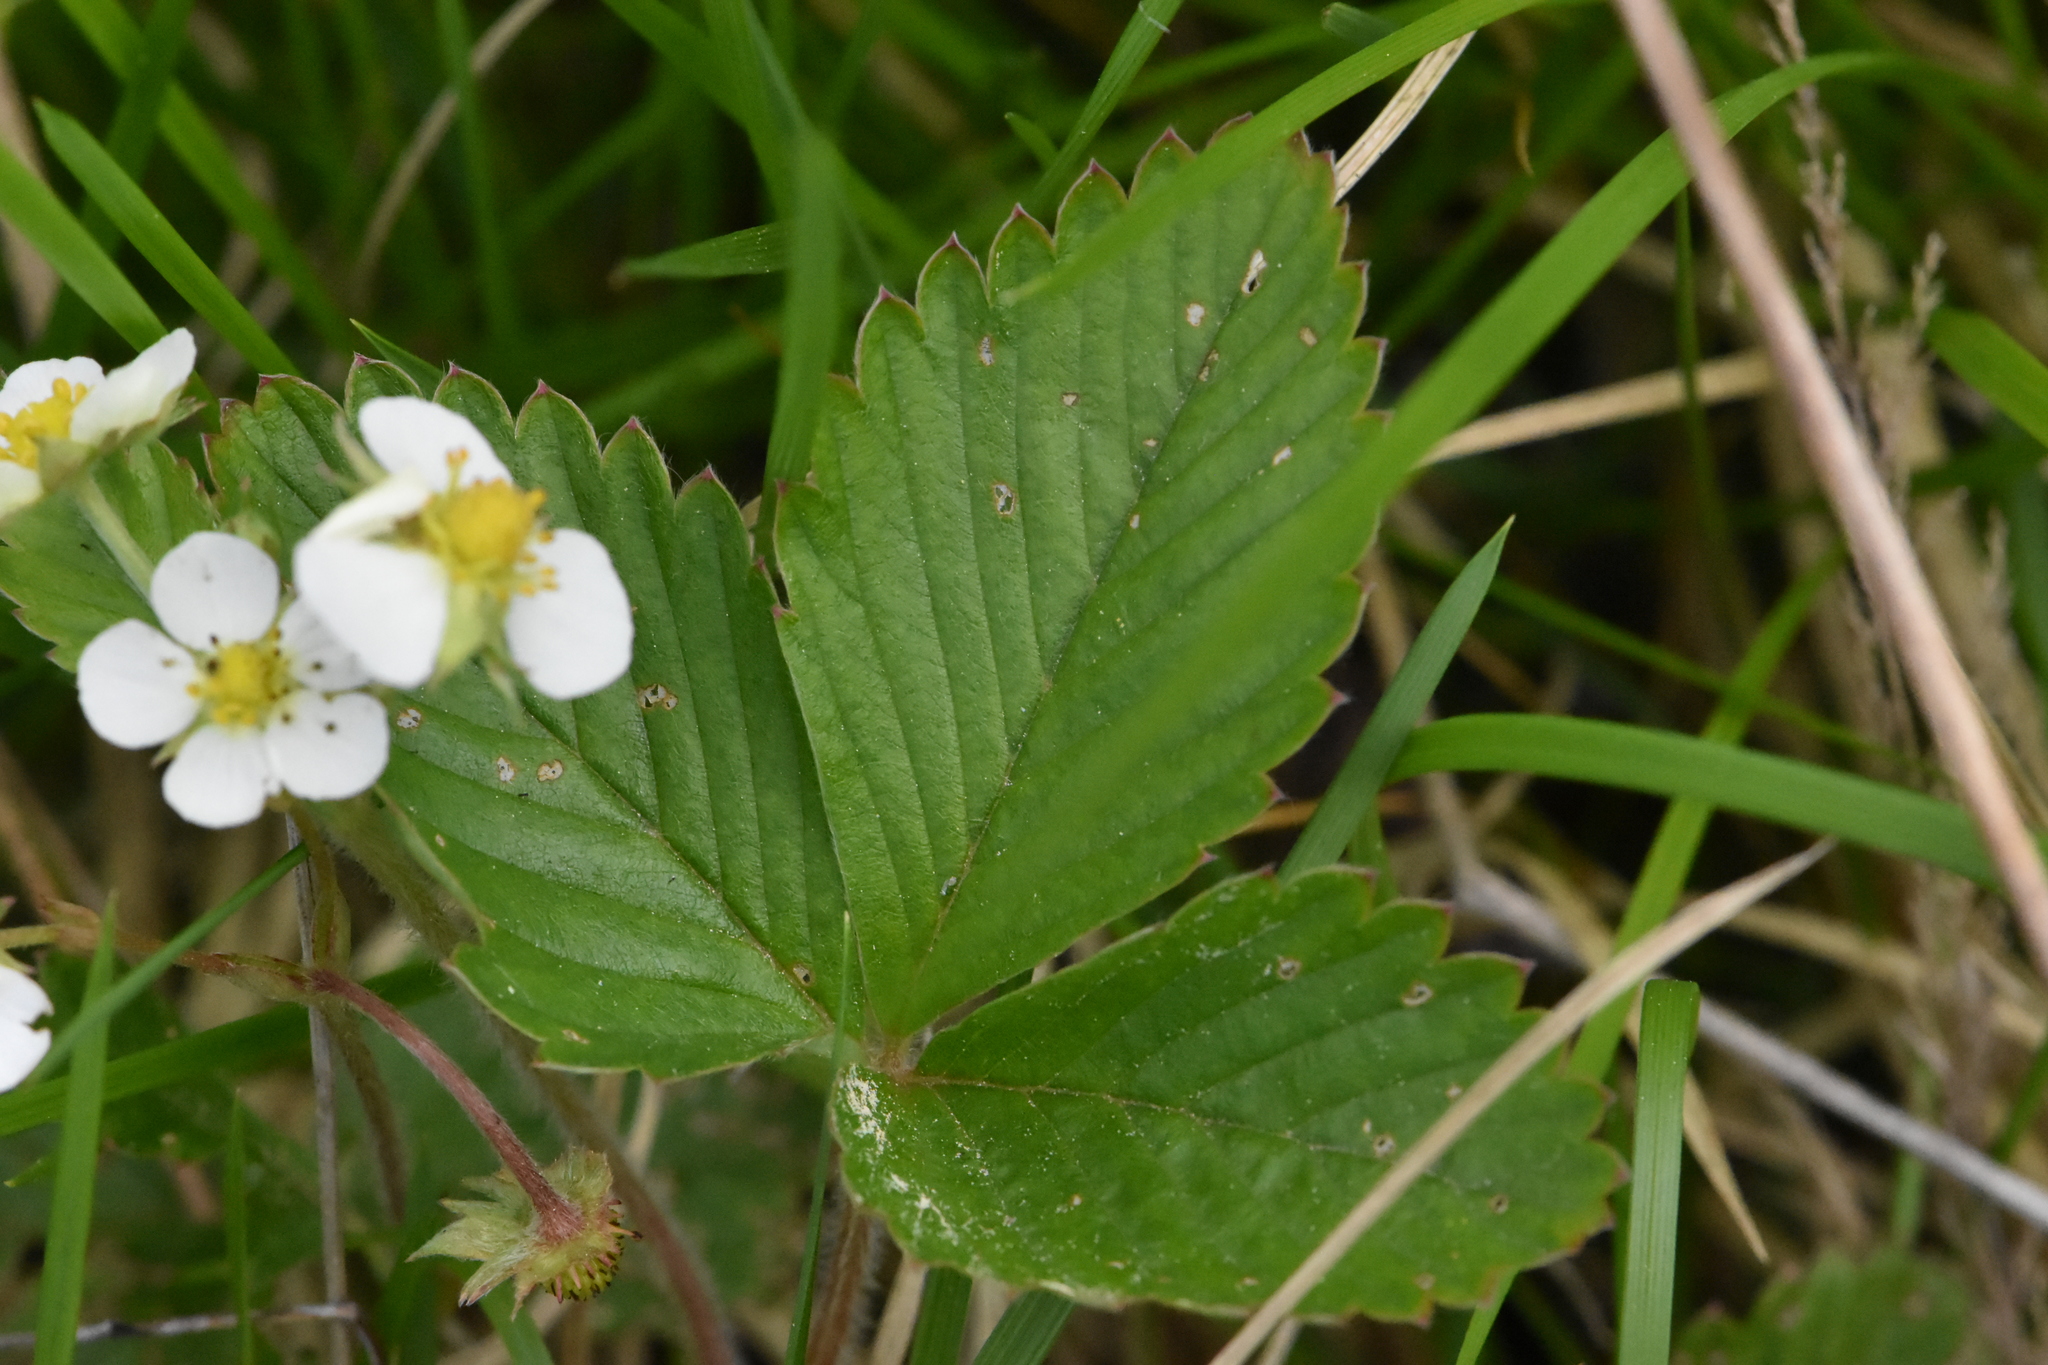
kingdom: Plantae
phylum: Tracheophyta
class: Magnoliopsida
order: Rosales
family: Rosaceae
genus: Fragaria
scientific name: Fragaria vesca
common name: Wild strawberry
